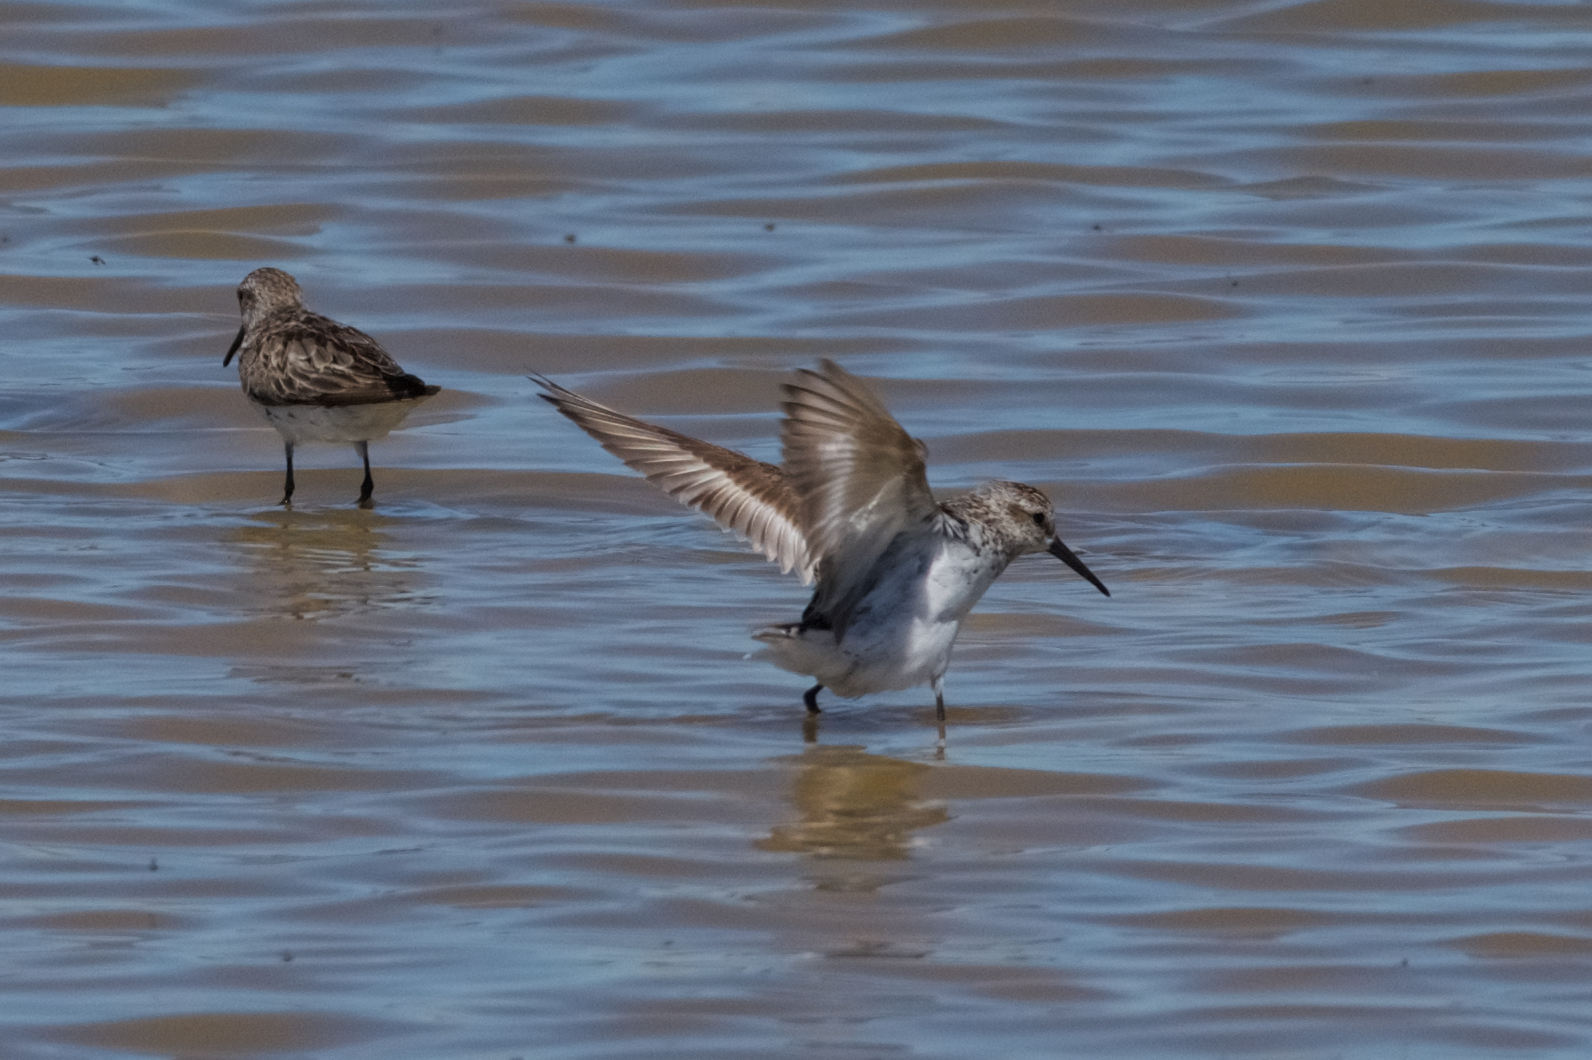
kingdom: Animalia
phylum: Chordata
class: Aves
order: Charadriiformes
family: Scolopacidae
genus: Calidris
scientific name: Calidris mauri
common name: Western sandpiper
